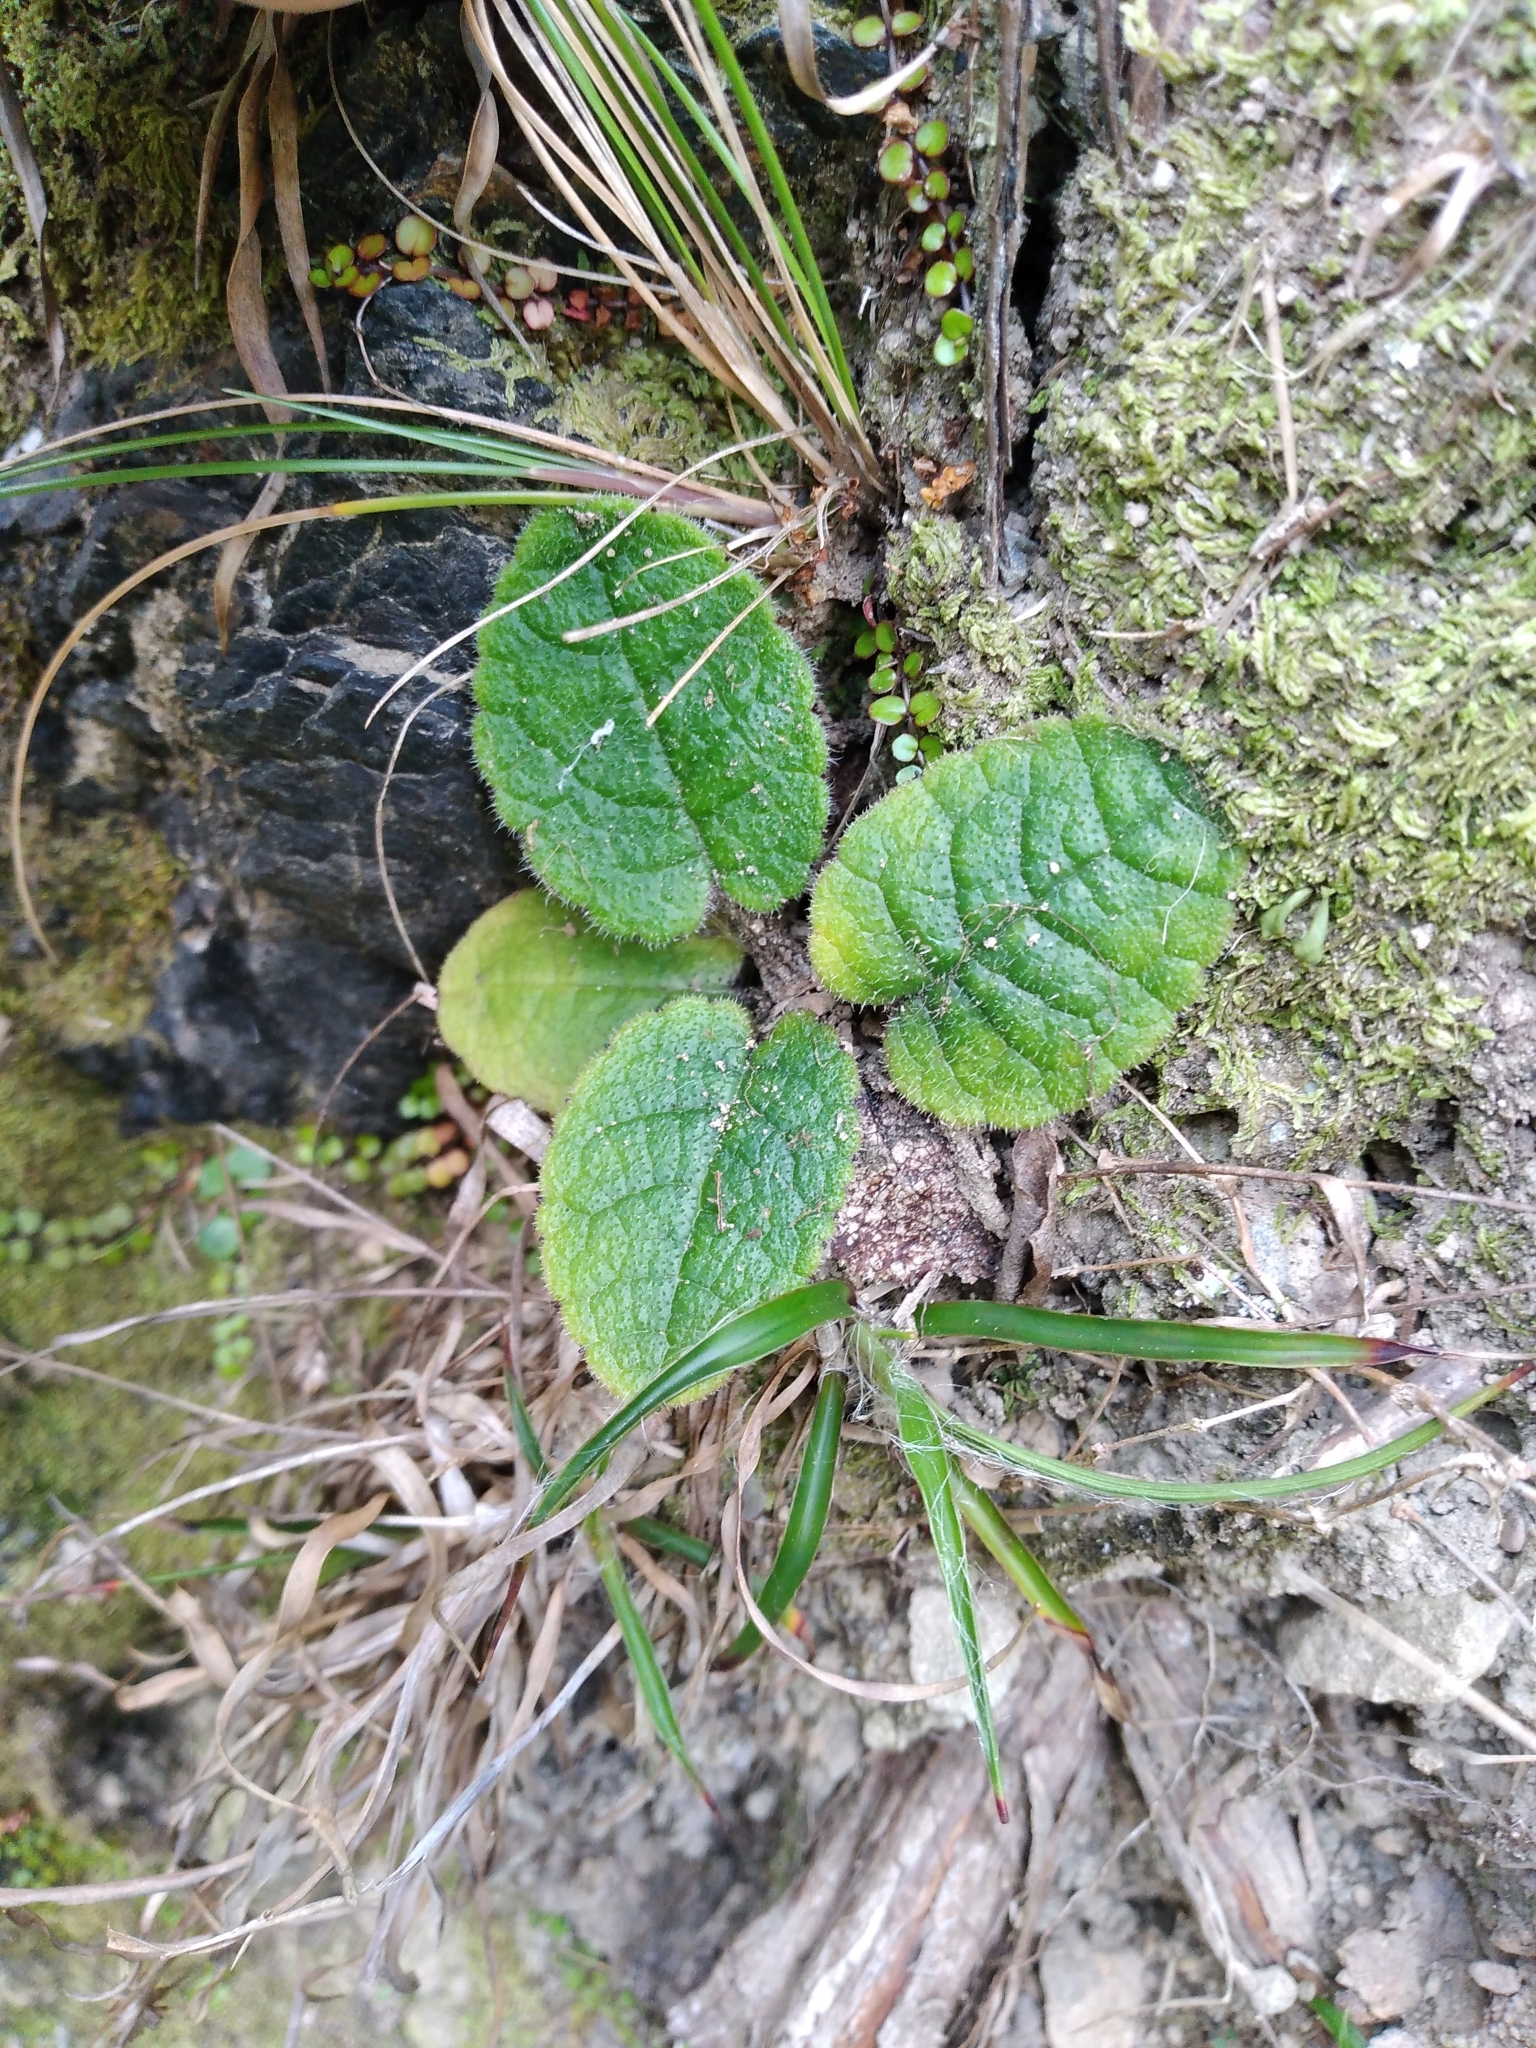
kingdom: Plantae
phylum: Tracheophyta
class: Magnoliopsida
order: Asterales
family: Asteraceae
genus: Brachyglottis
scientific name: Brachyglottis lagopus
